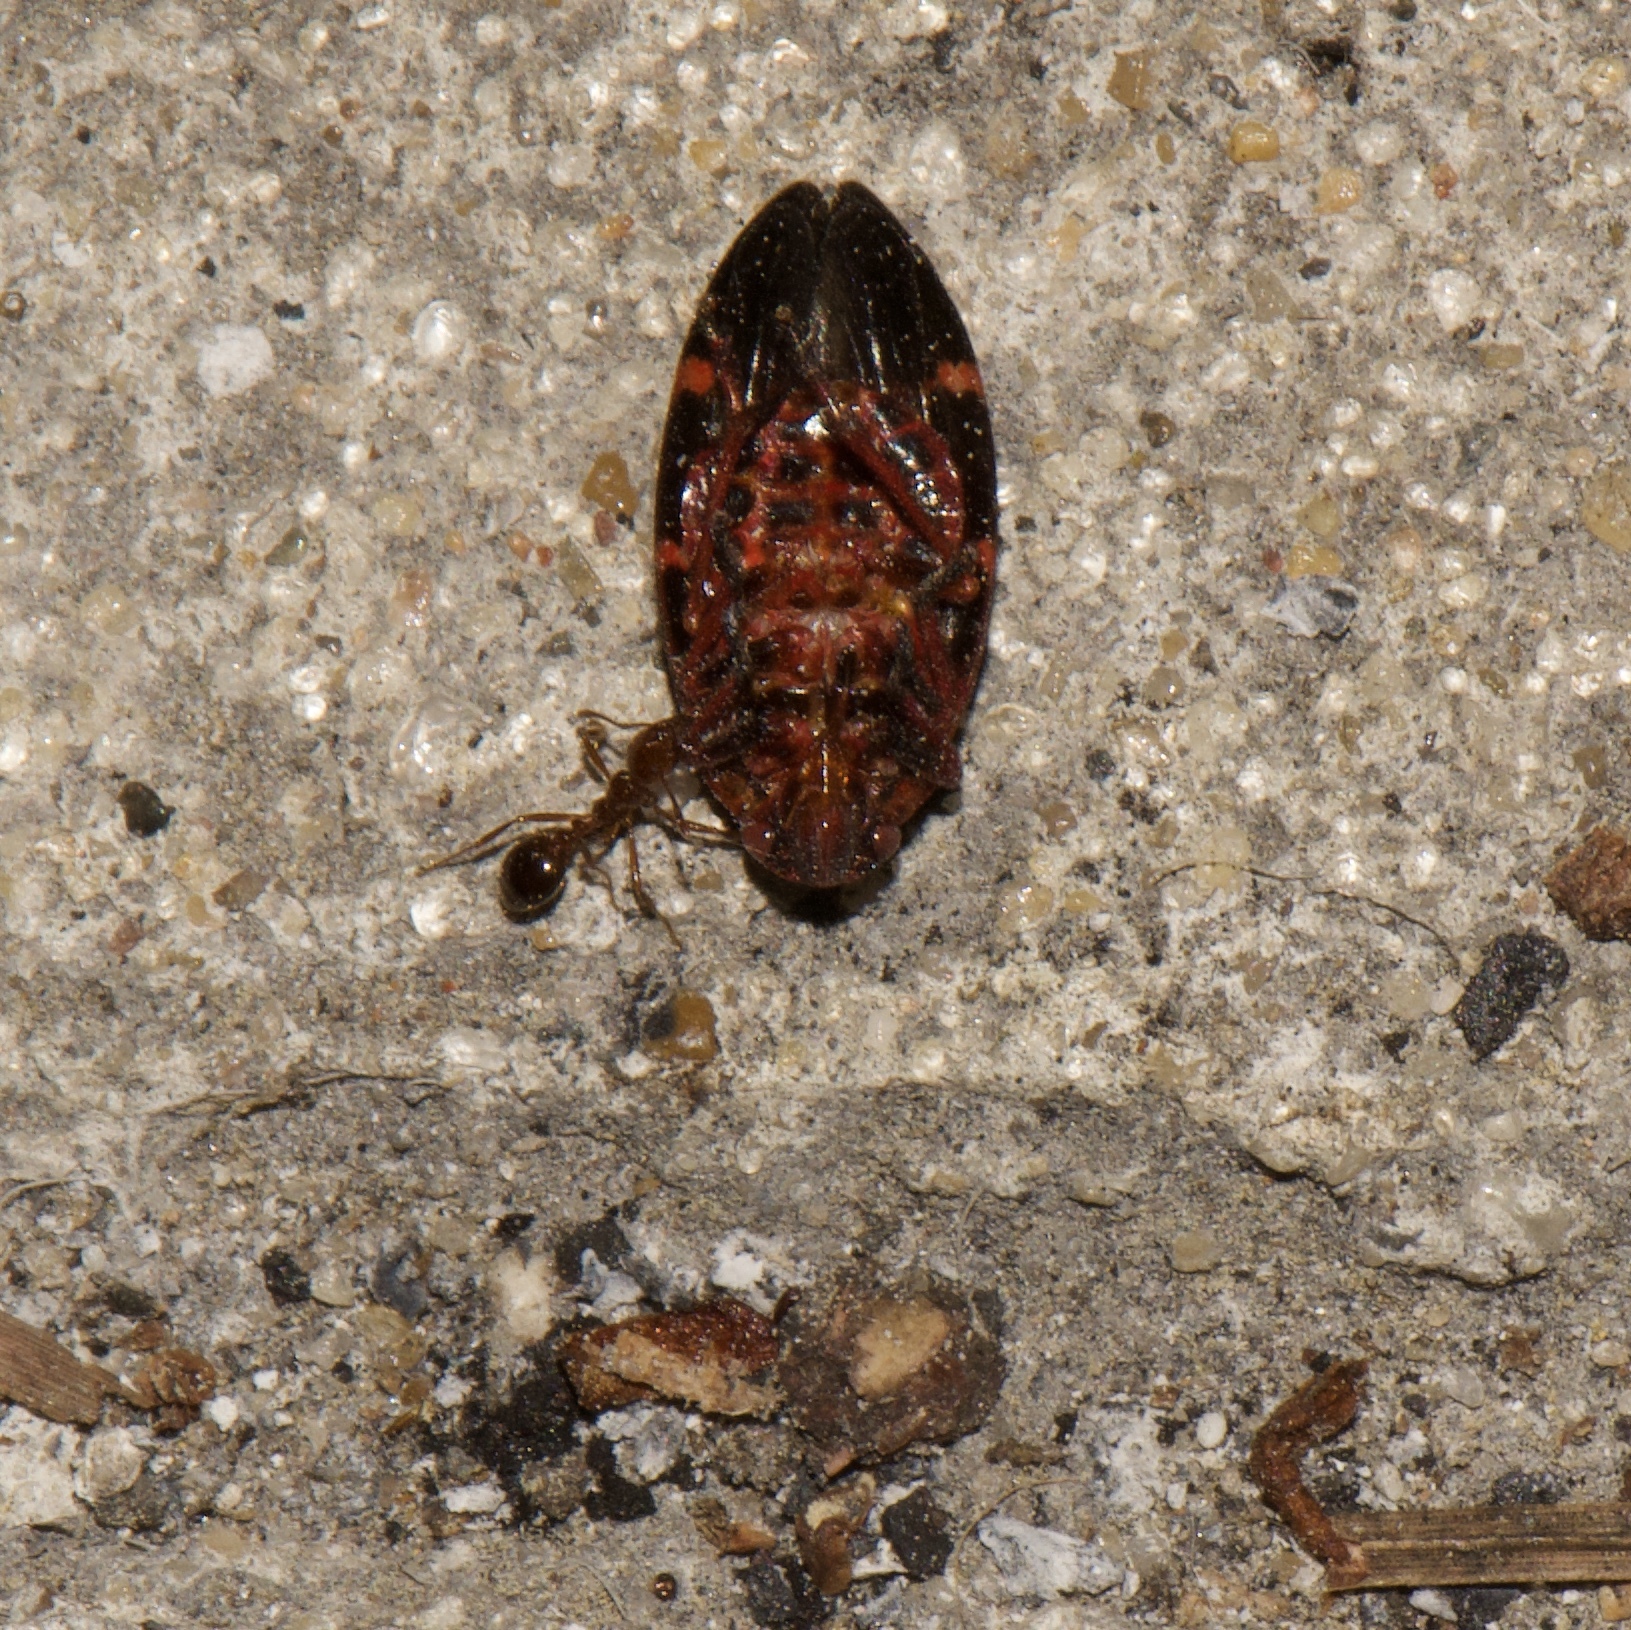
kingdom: Animalia
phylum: Arthropoda
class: Insecta
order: Hemiptera
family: Cercopidae
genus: Prosapia
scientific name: Prosapia bicincta
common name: Twolined spittlebug
